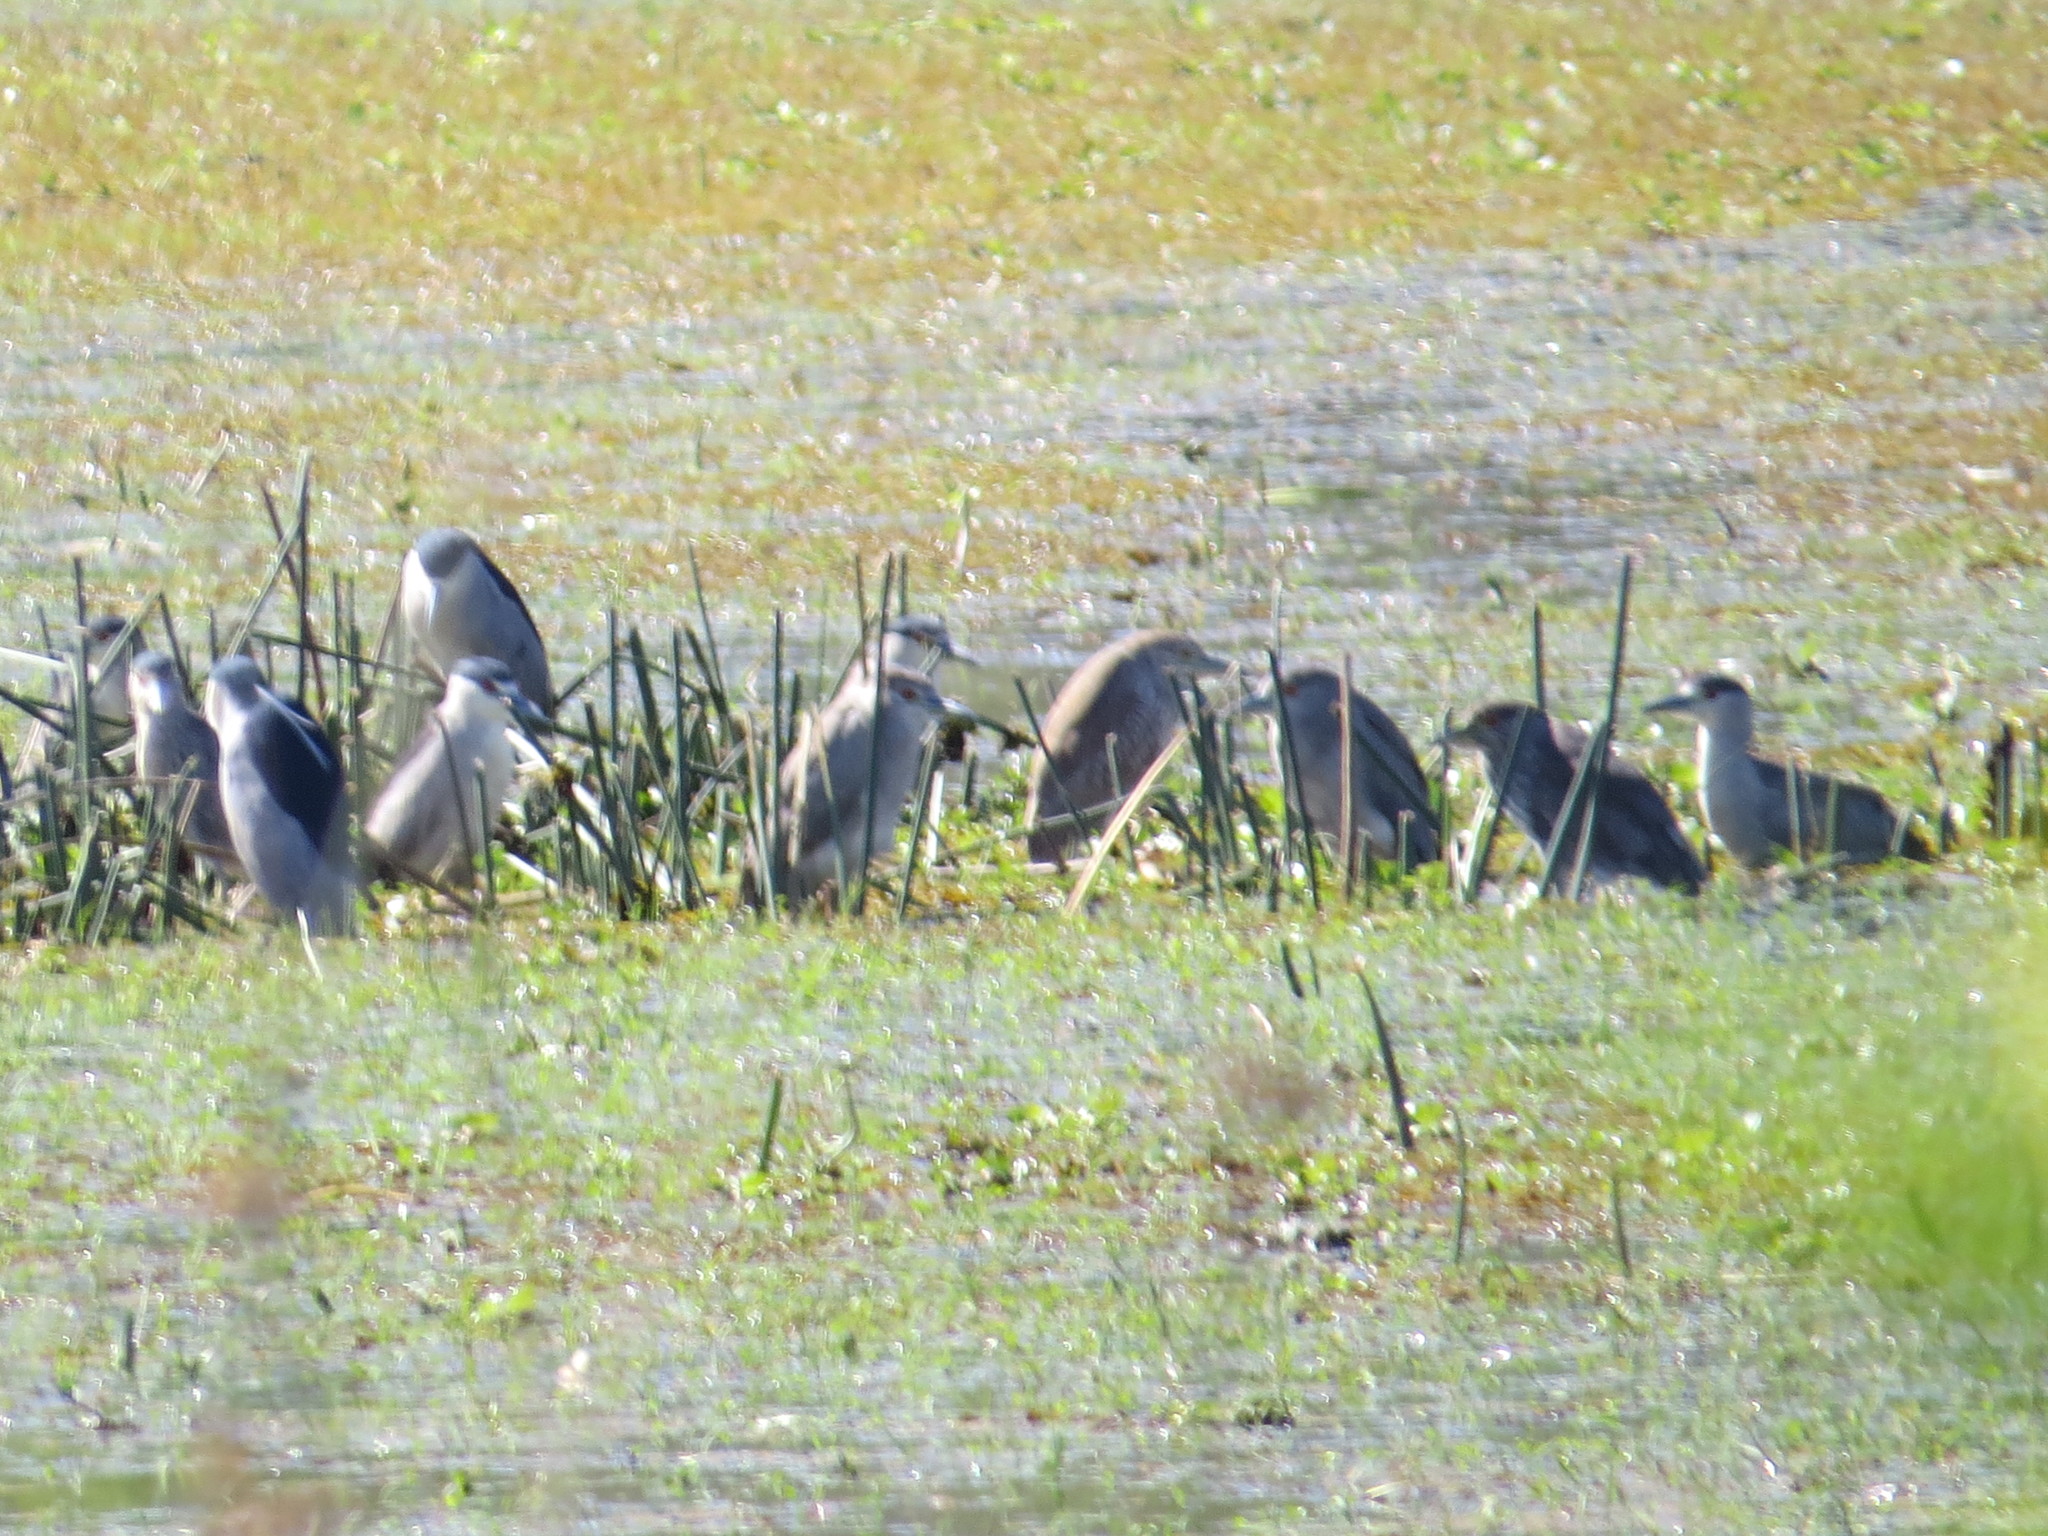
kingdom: Animalia
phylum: Chordata
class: Aves
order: Pelecaniformes
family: Ardeidae
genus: Nycticorax
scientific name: Nycticorax nycticorax
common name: Black-crowned night heron
